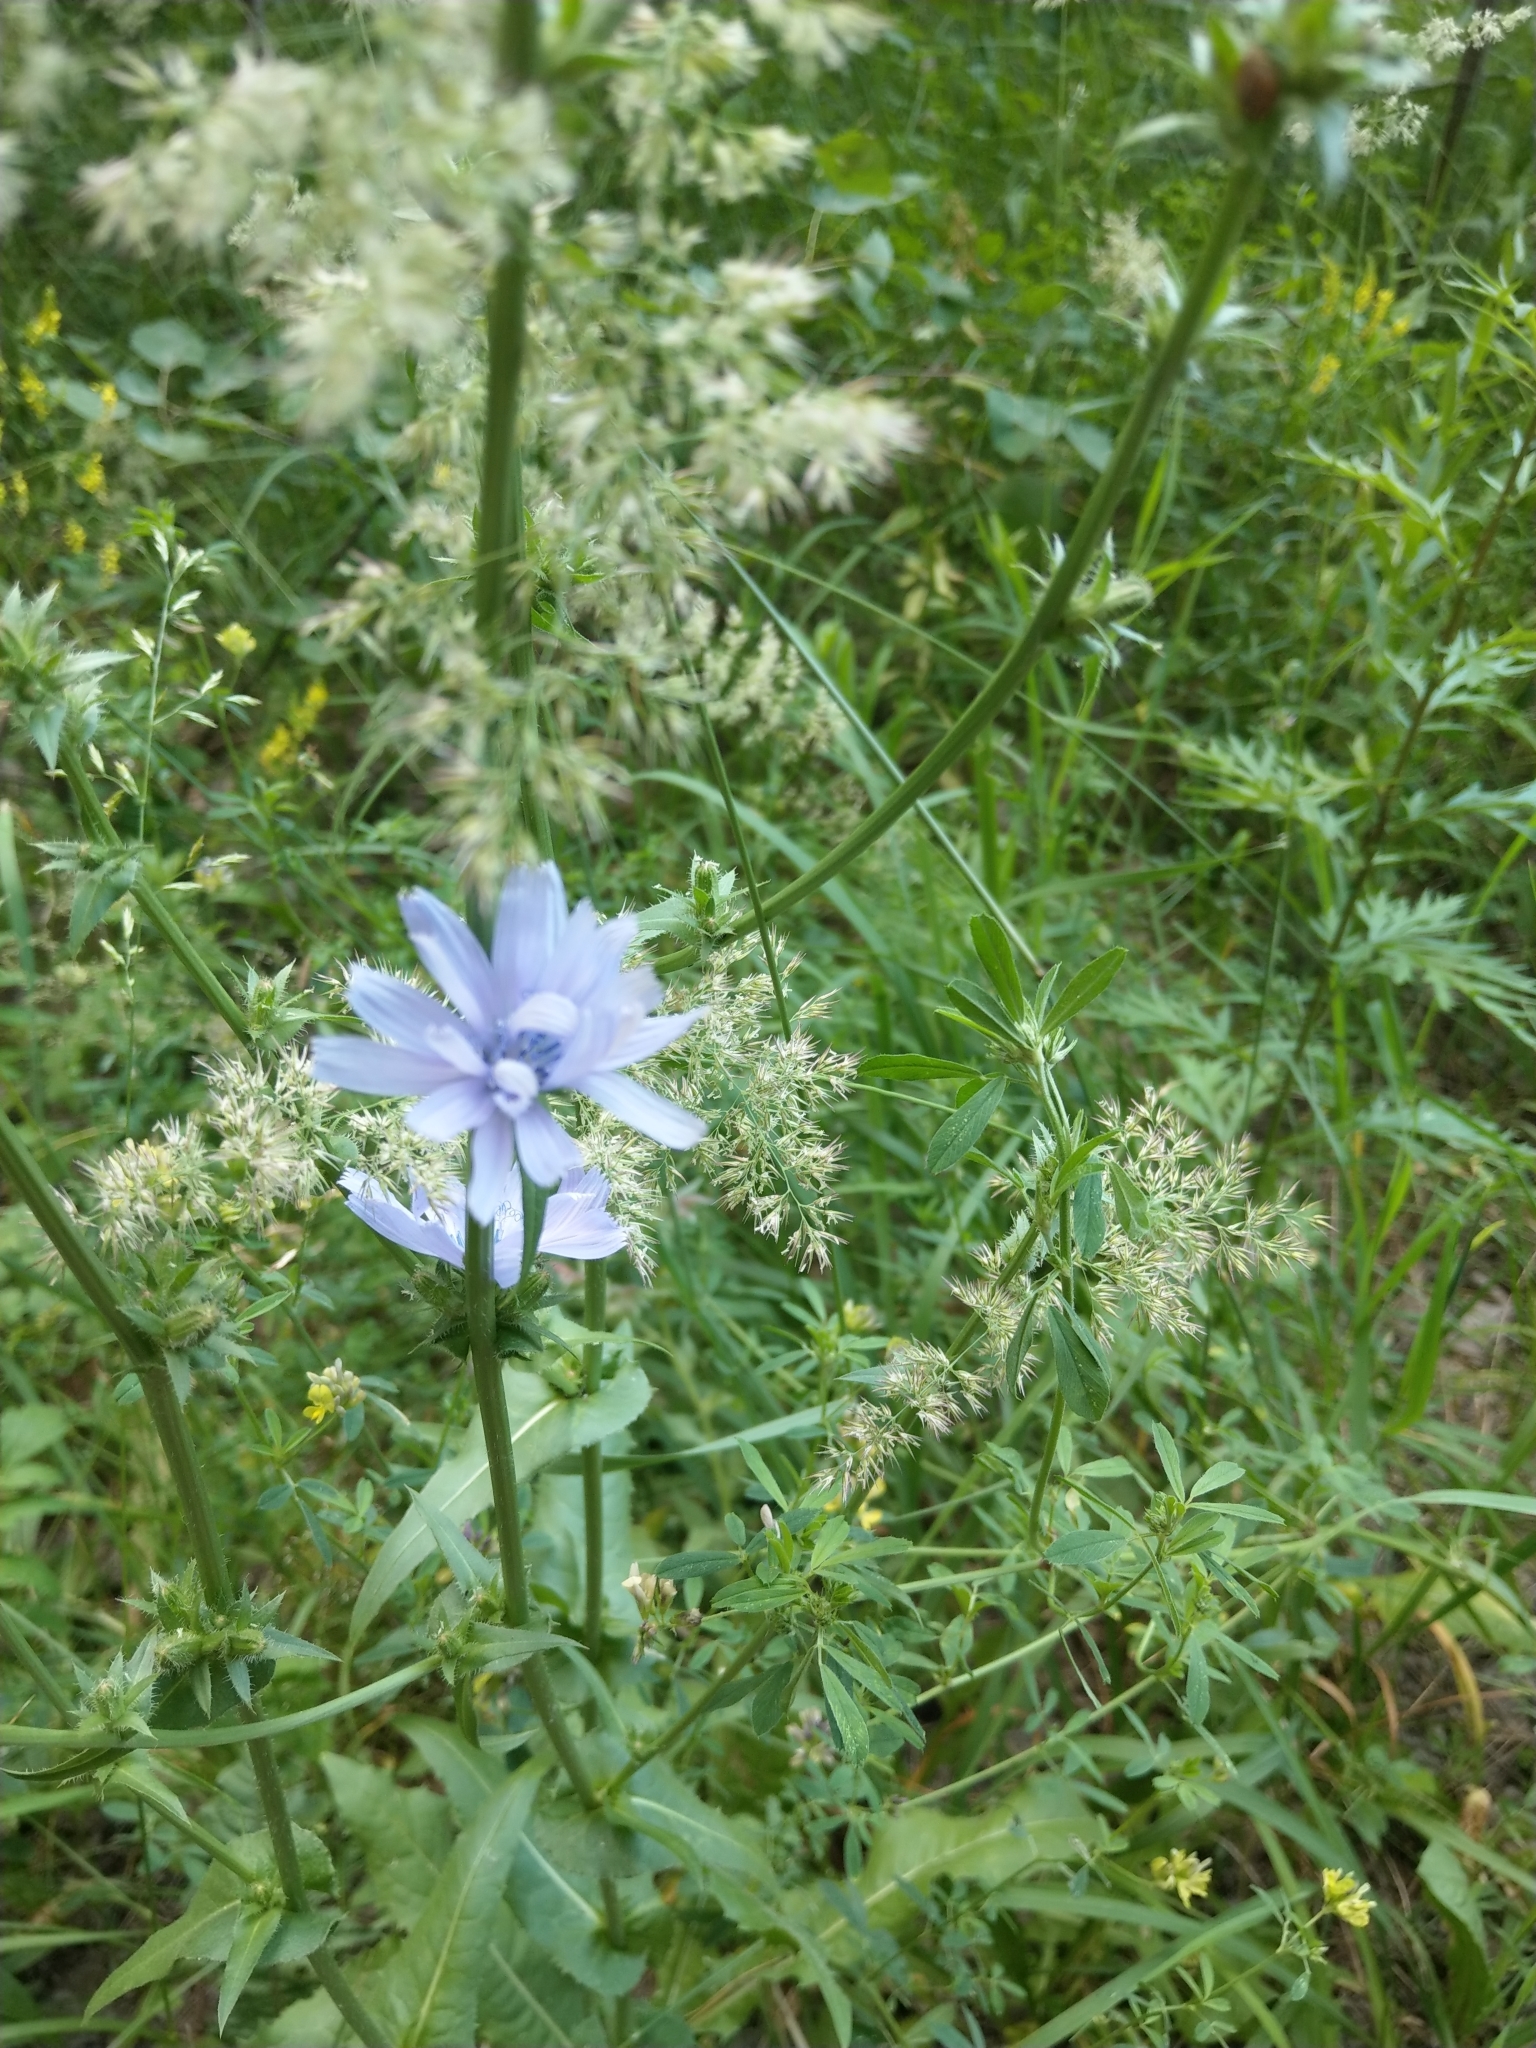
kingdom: Plantae
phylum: Tracheophyta
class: Magnoliopsida
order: Asterales
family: Asteraceae
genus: Cichorium
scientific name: Cichorium intybus
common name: Chicory
